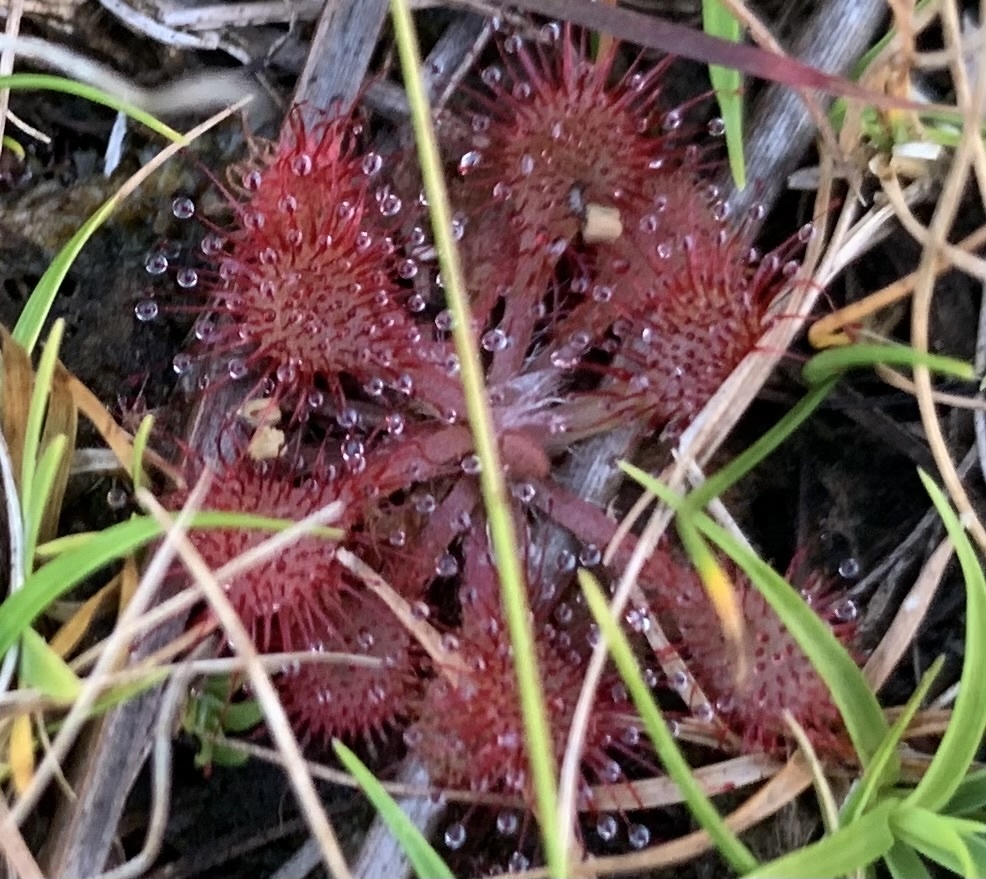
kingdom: Plantae
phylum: Tracheophyta
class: Magnoliopsida
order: Caryophyllales
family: Droseraceae
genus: Drosera
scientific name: Drosera capillaris
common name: Pink sundew
